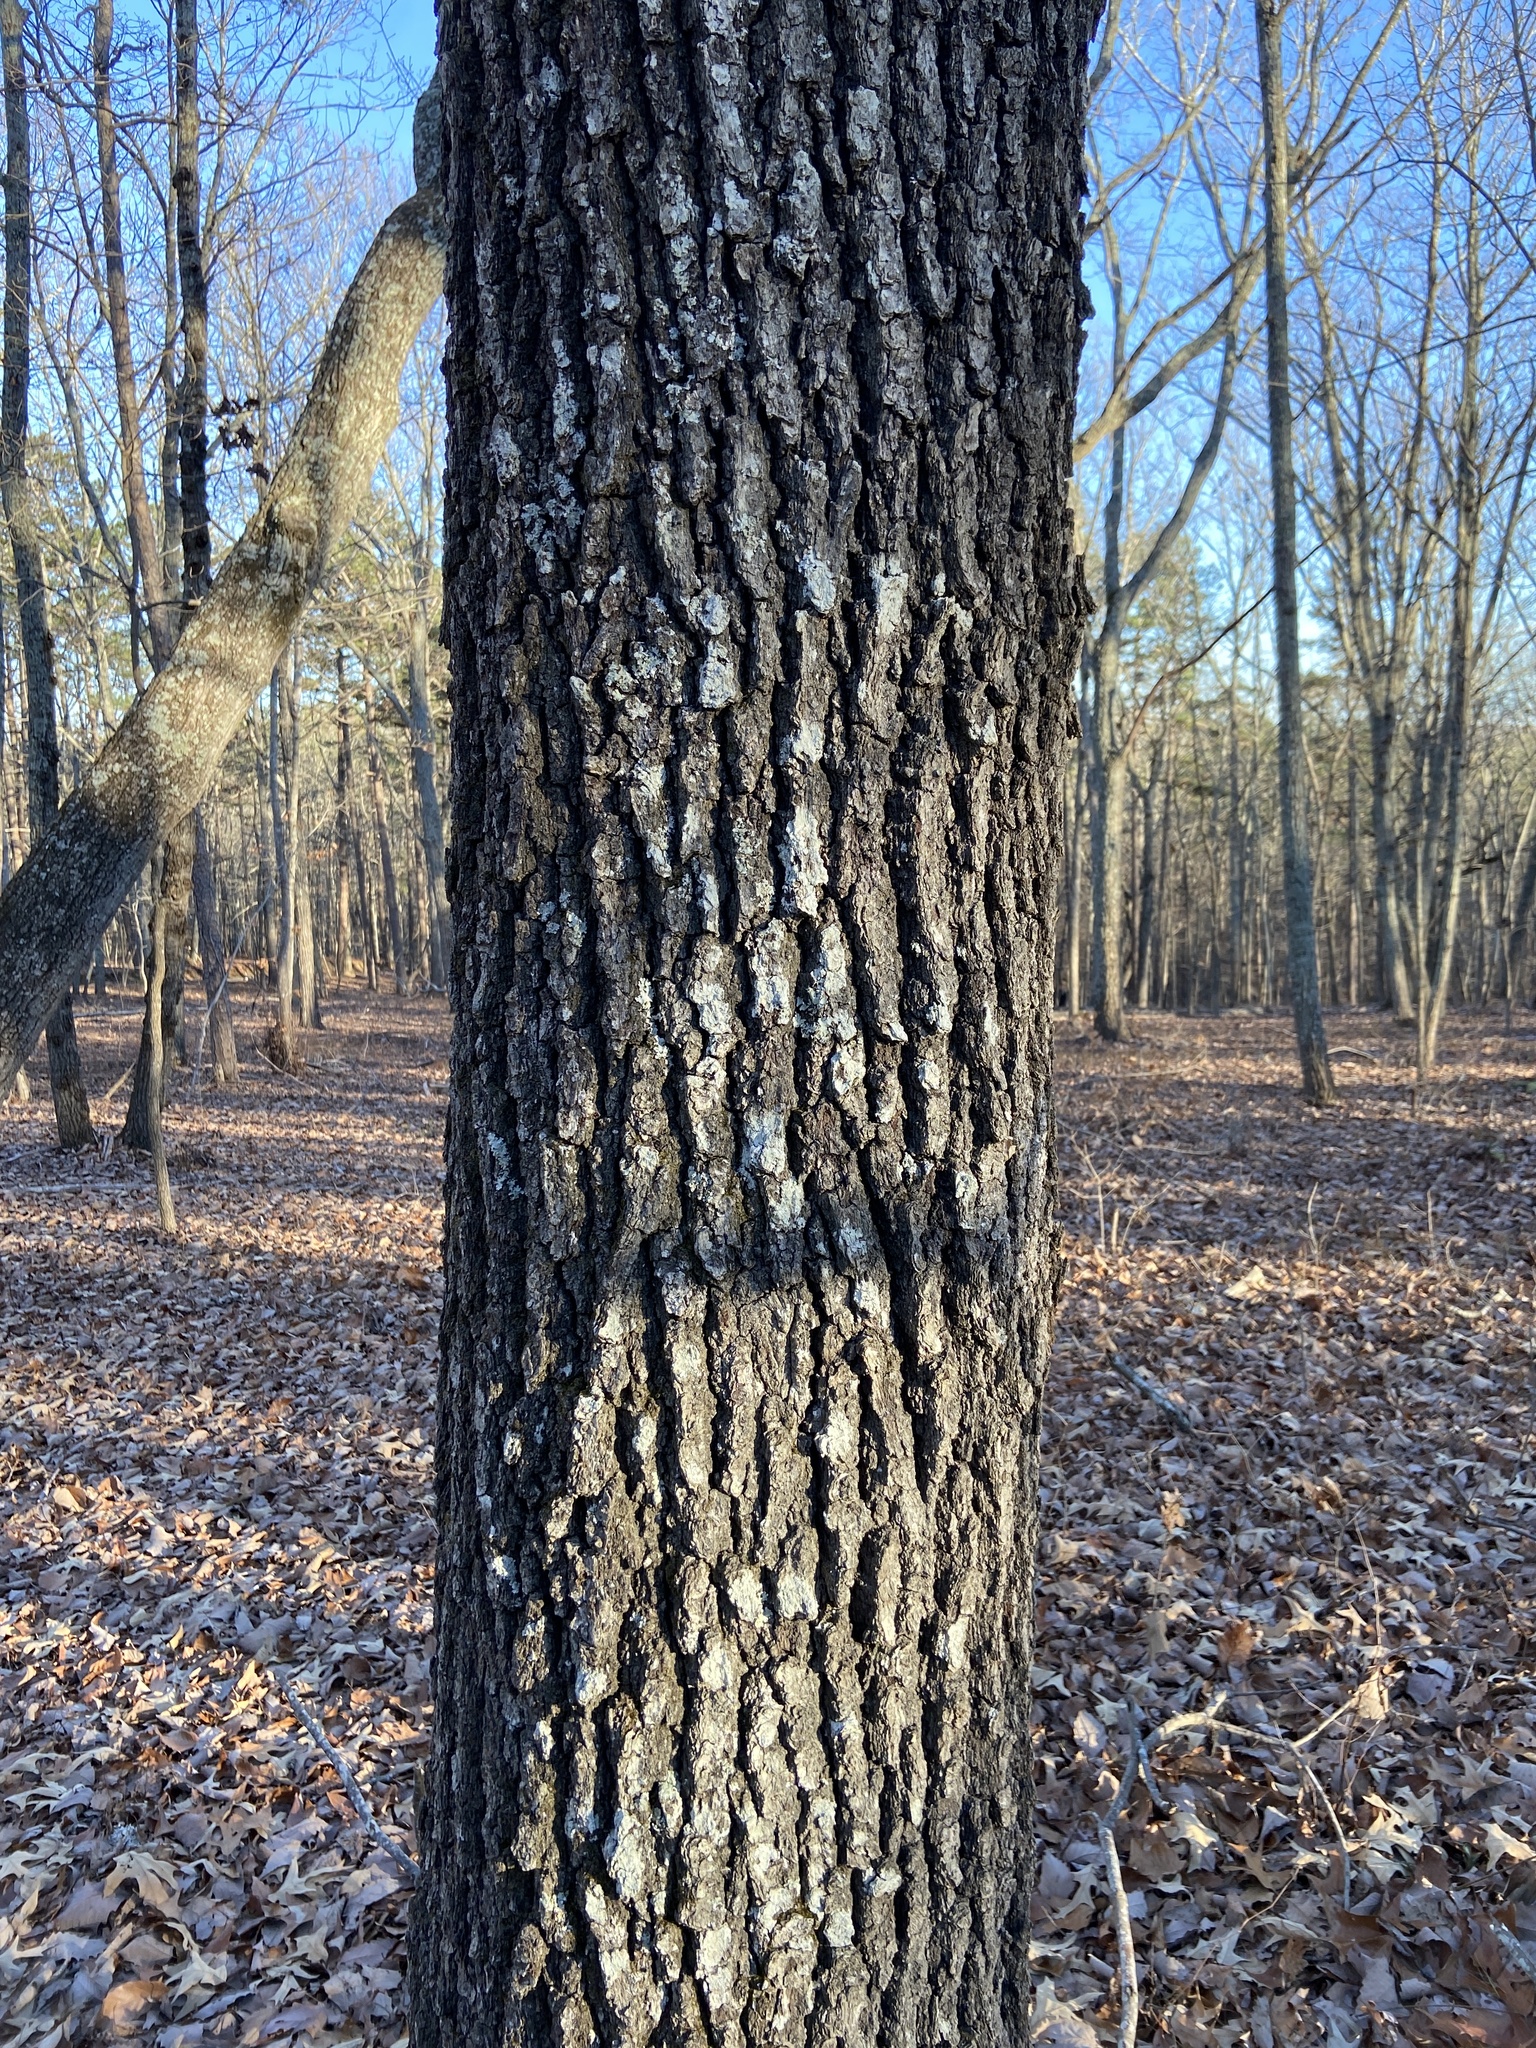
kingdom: Plantae
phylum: Tracheophyta
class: Magnoliopsida
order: Fagales
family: Fagaceae
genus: Quercus
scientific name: Quercus falcata
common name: Southern red oak
